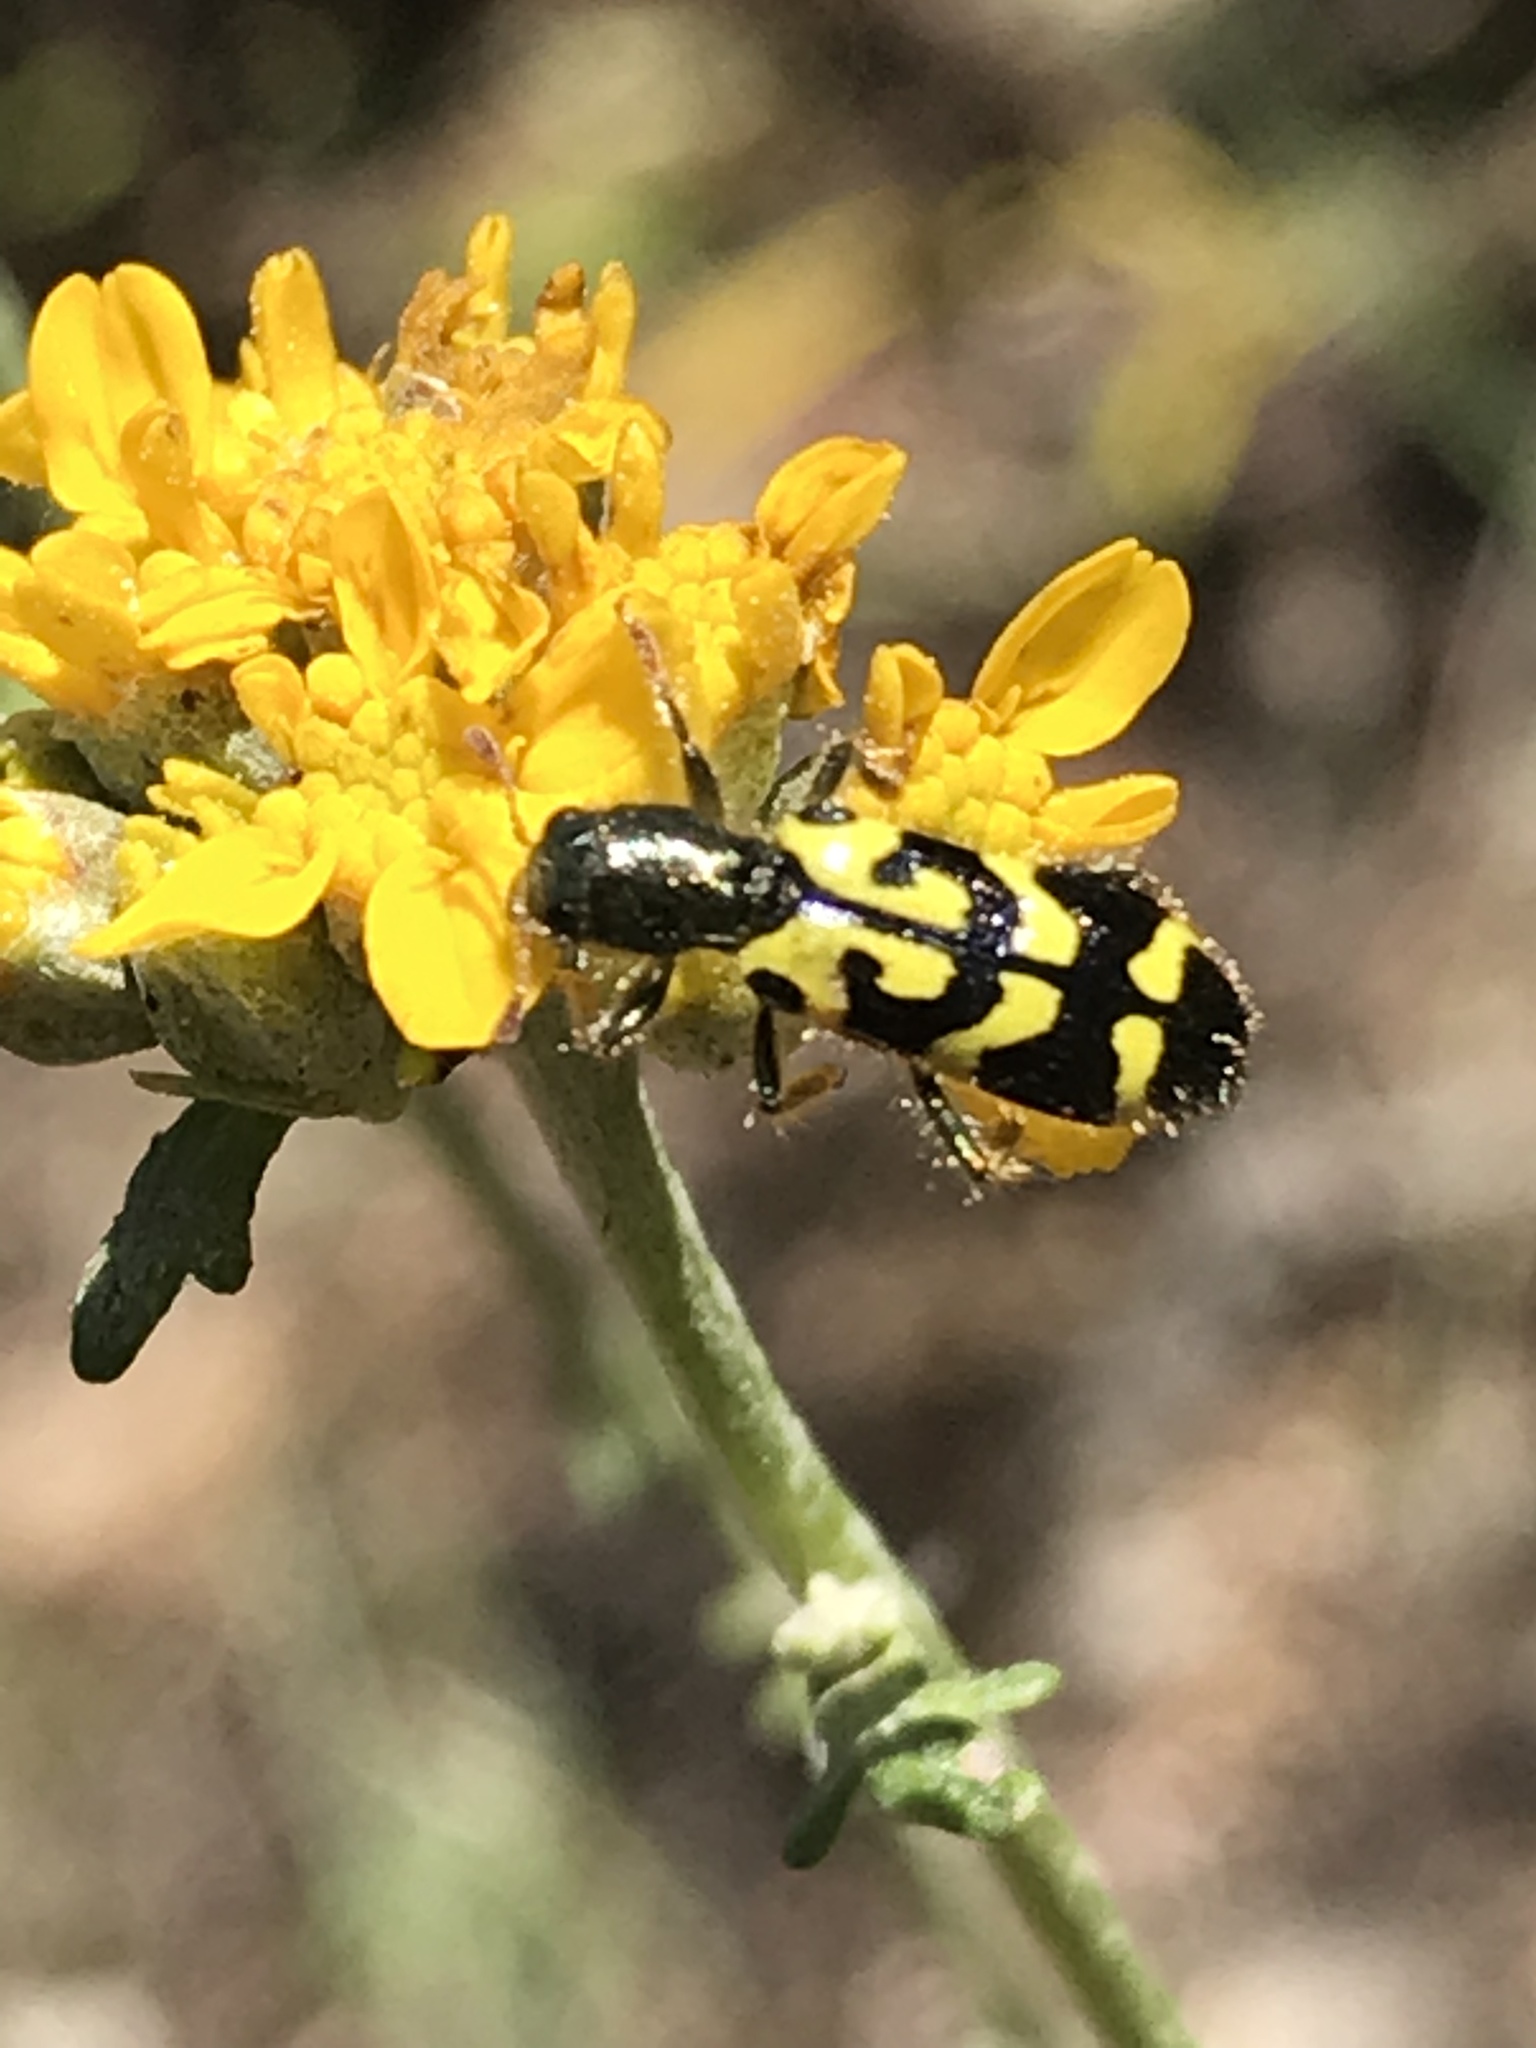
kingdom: Animalia
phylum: Arthropoda
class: Insecta
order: Coleoptera
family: Cleridae
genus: Trichodes
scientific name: Trichodes ornatus
